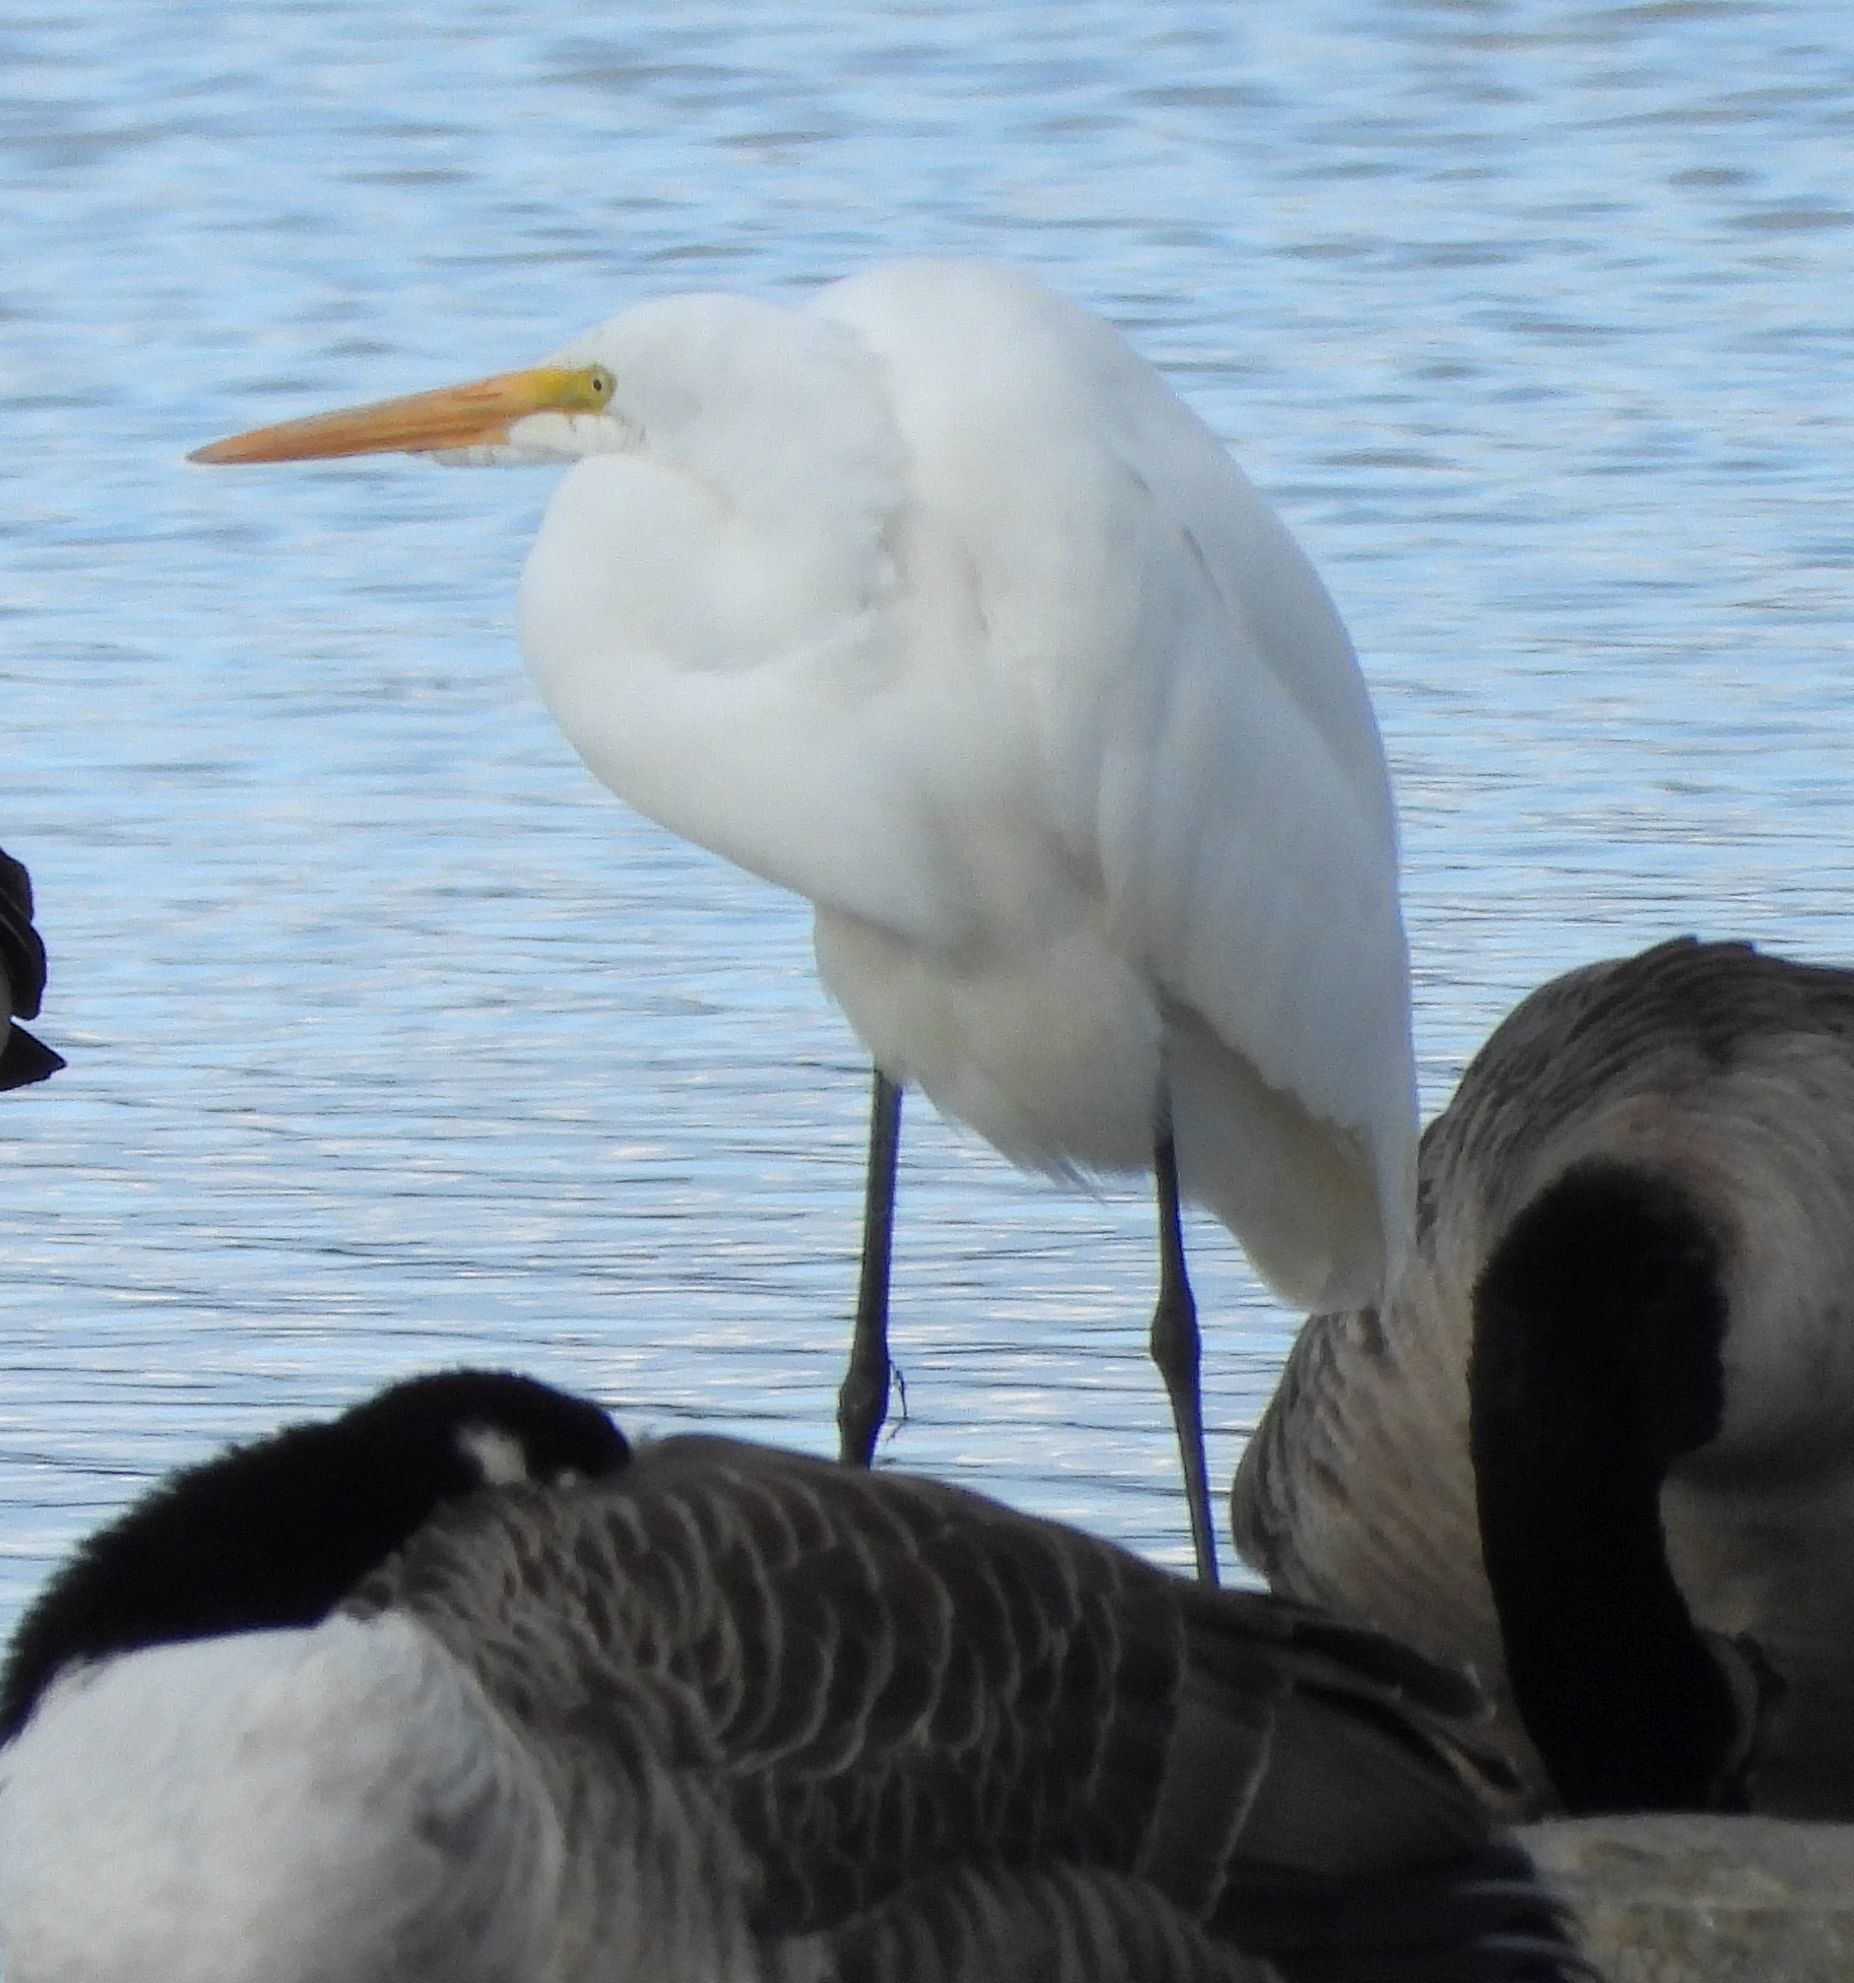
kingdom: Animalia
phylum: Chordata
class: Aves
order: Pelecaniformes
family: Ardeidae
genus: Ardea
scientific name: Ardea alba
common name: Great egret
